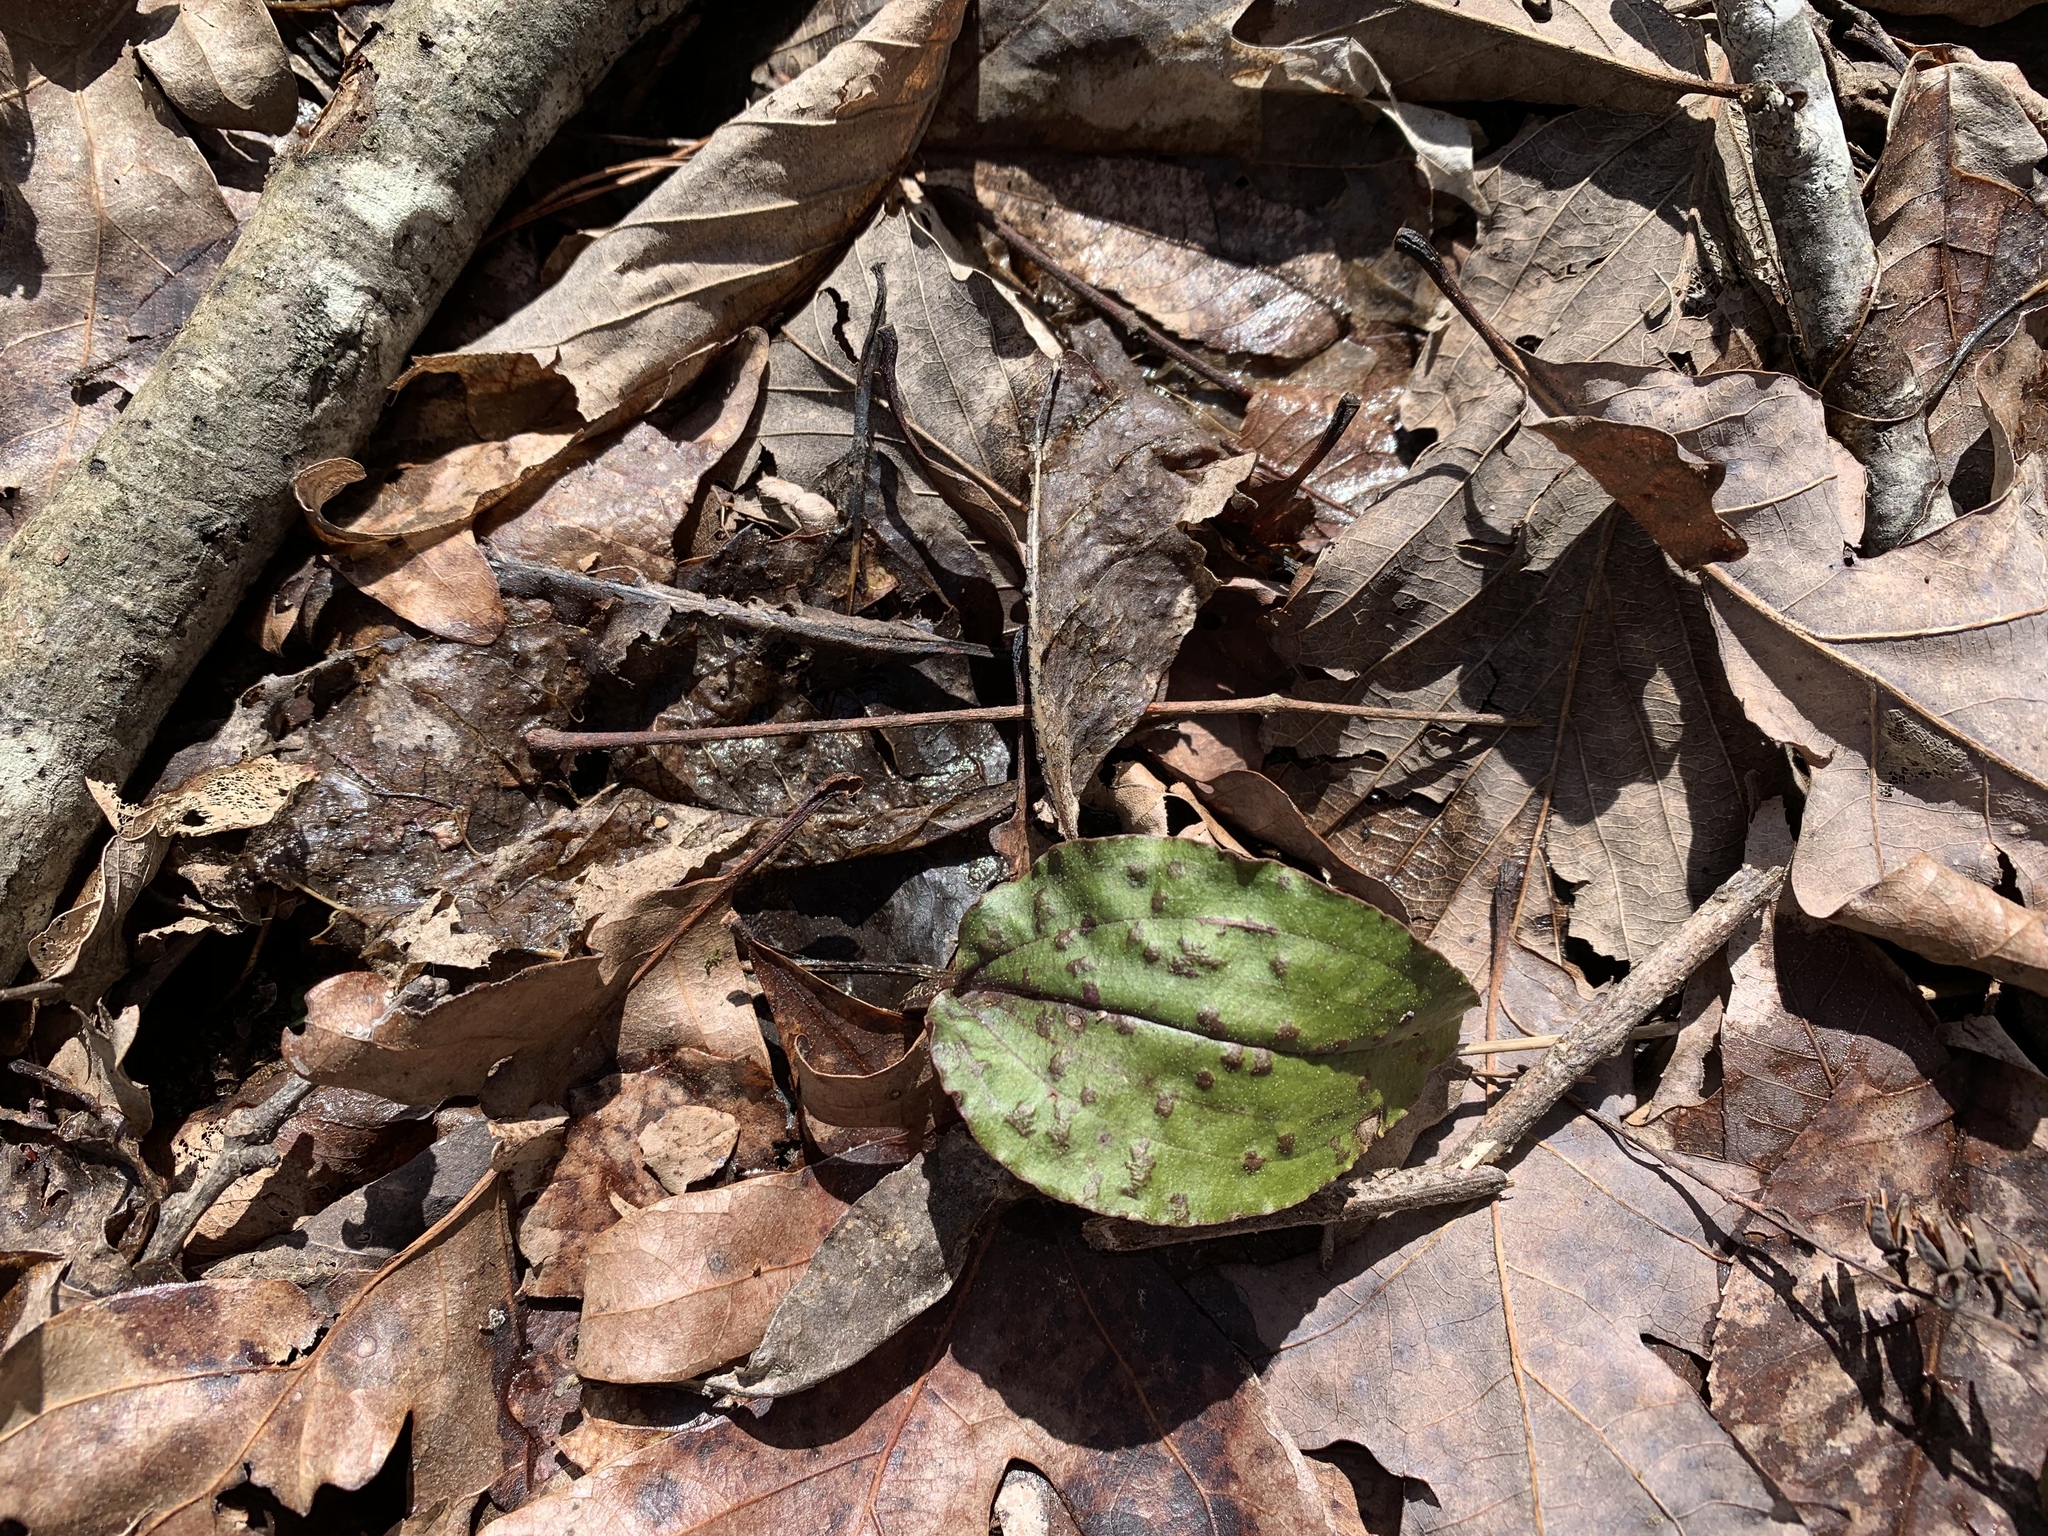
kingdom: Plantae
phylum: Tracheophyta
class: Liliopsida
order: Asparagales
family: Orchidaceae
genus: Tipularia
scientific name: Tipularia discolor
